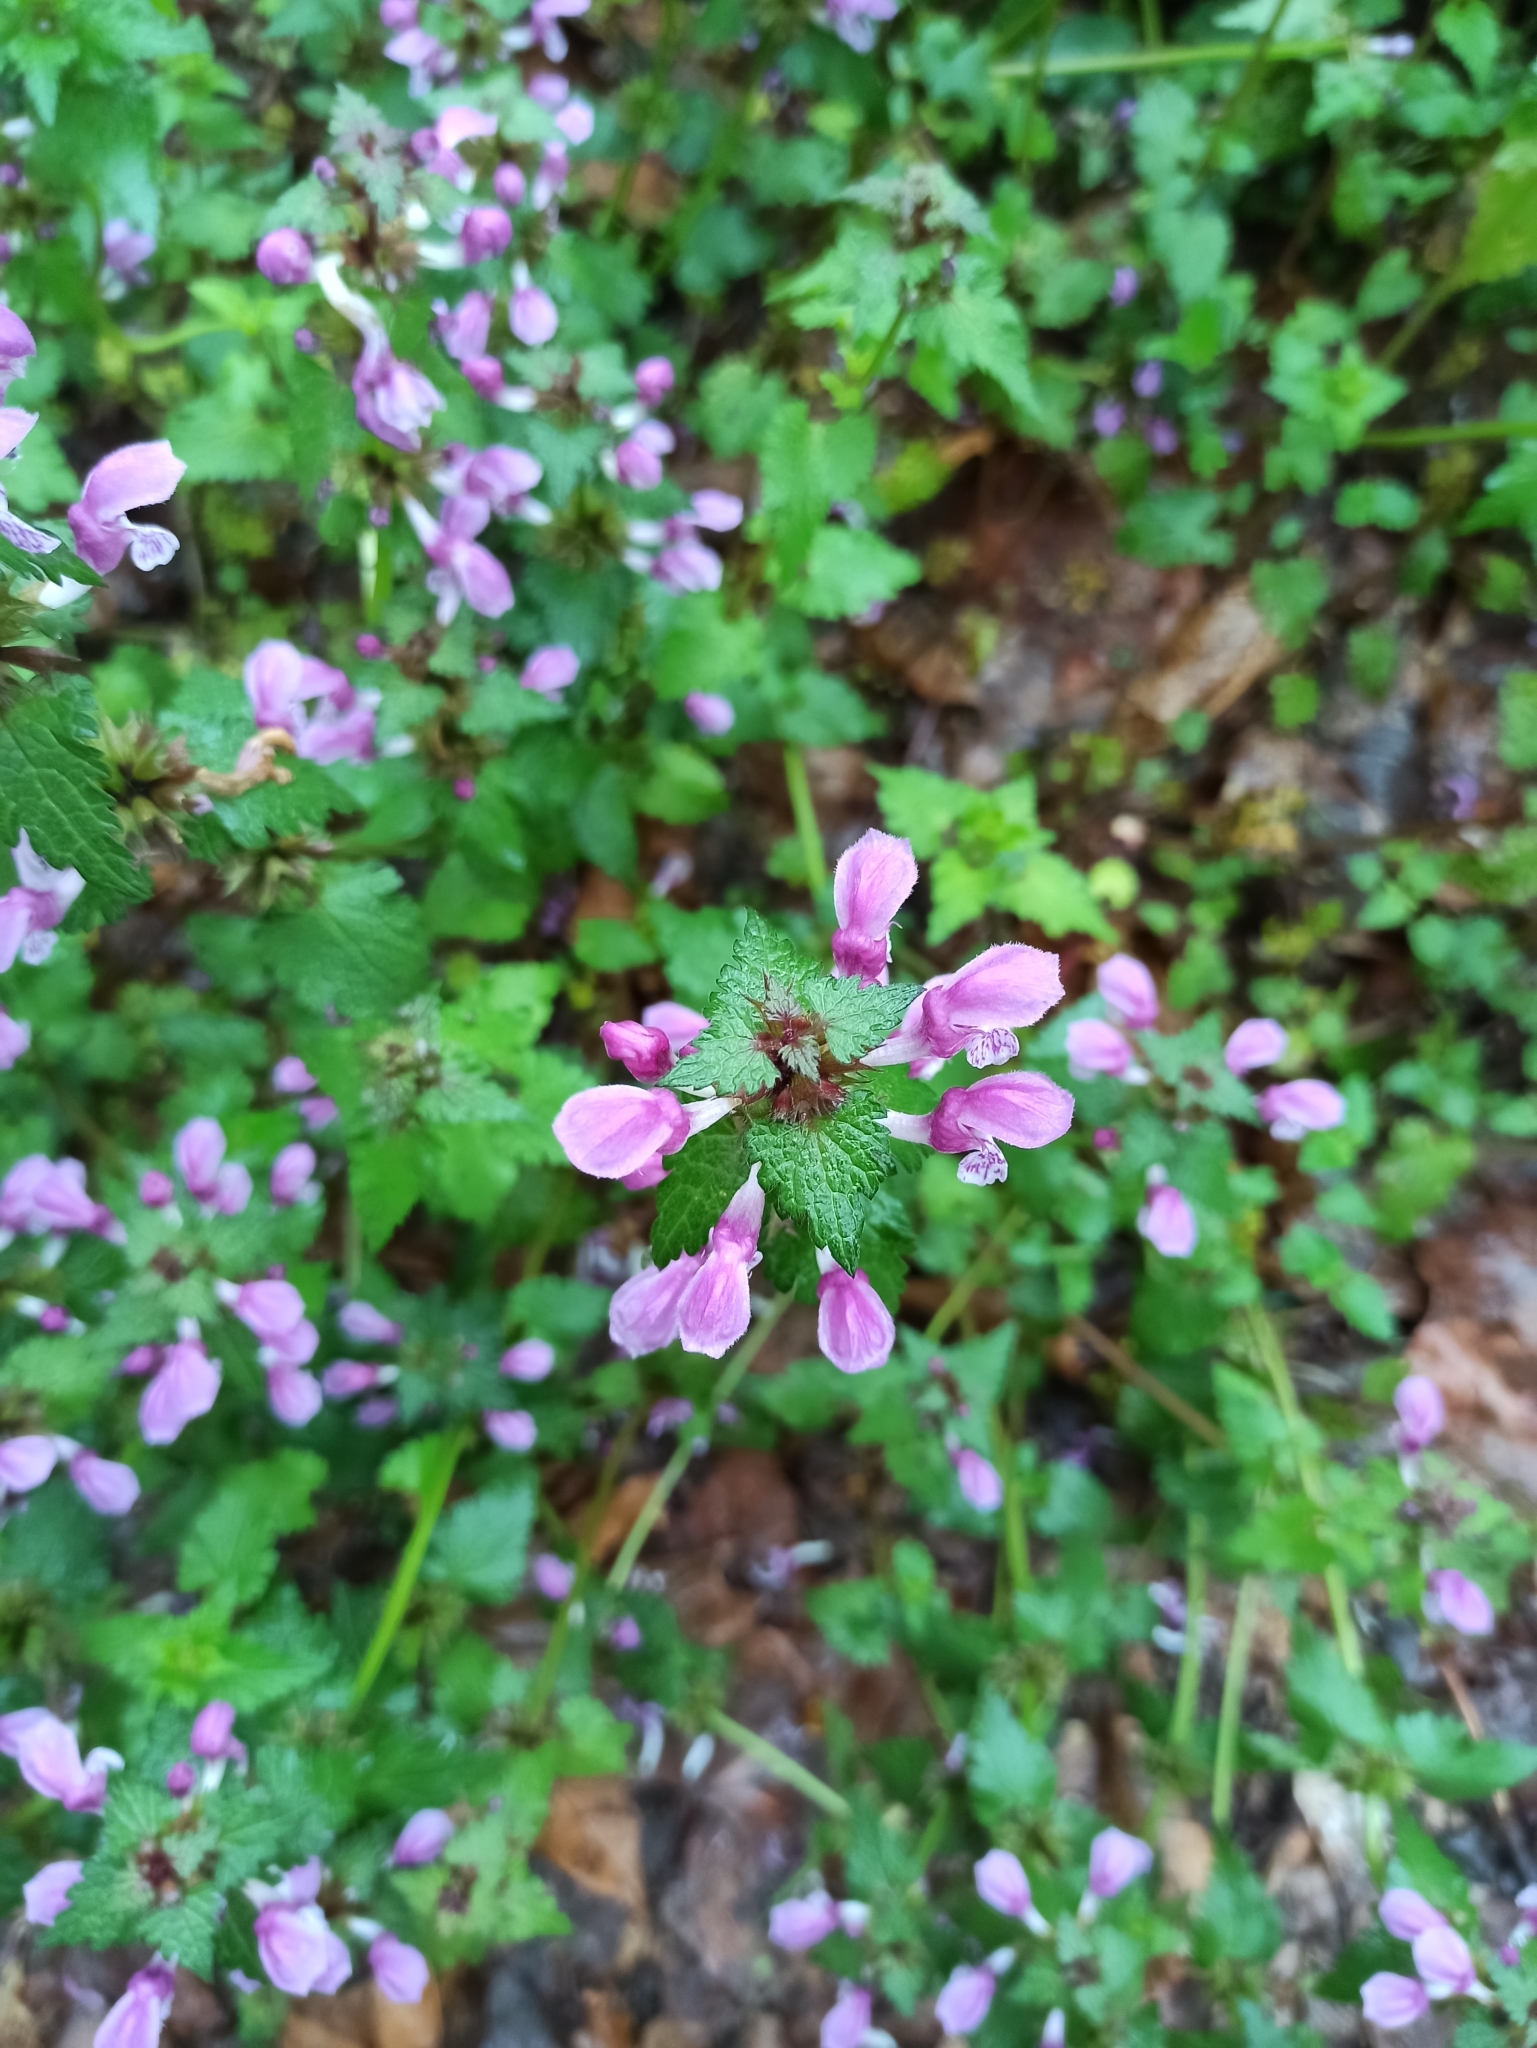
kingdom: Plantae
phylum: Tracheophyta
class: Magnoliopsida
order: Lamiales
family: Lamiaceae
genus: Lamium
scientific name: Lamium maculatum
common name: Spotted dead-nettle
